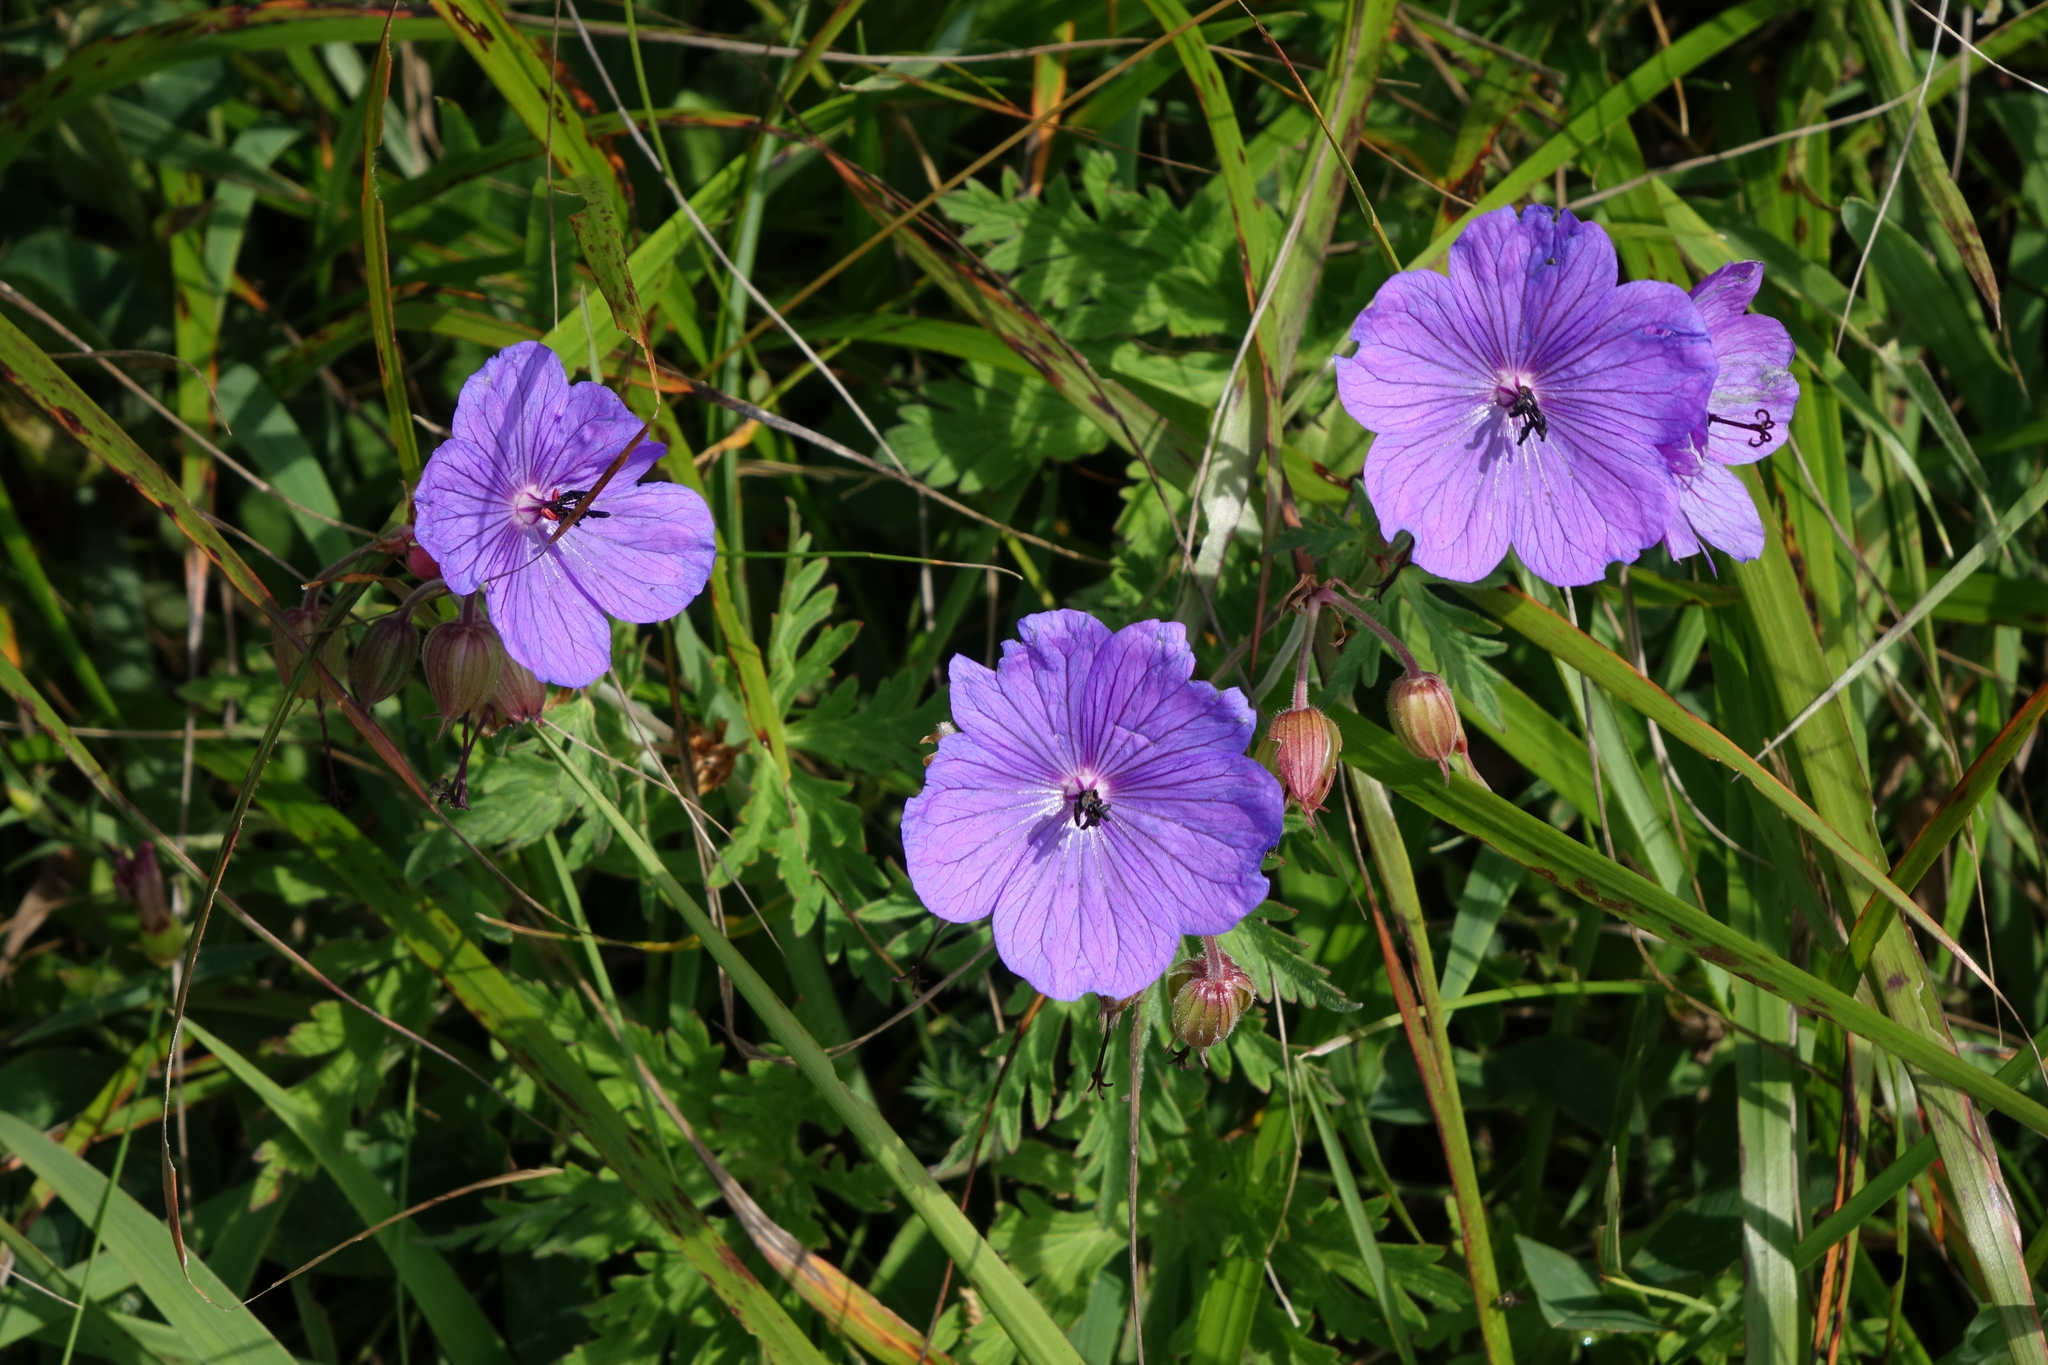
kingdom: Plantae
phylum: Tracheophyta
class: Magnoliopsida
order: Geraniales
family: Geraniaceae
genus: Geranium
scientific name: Geranium ruprechtii
